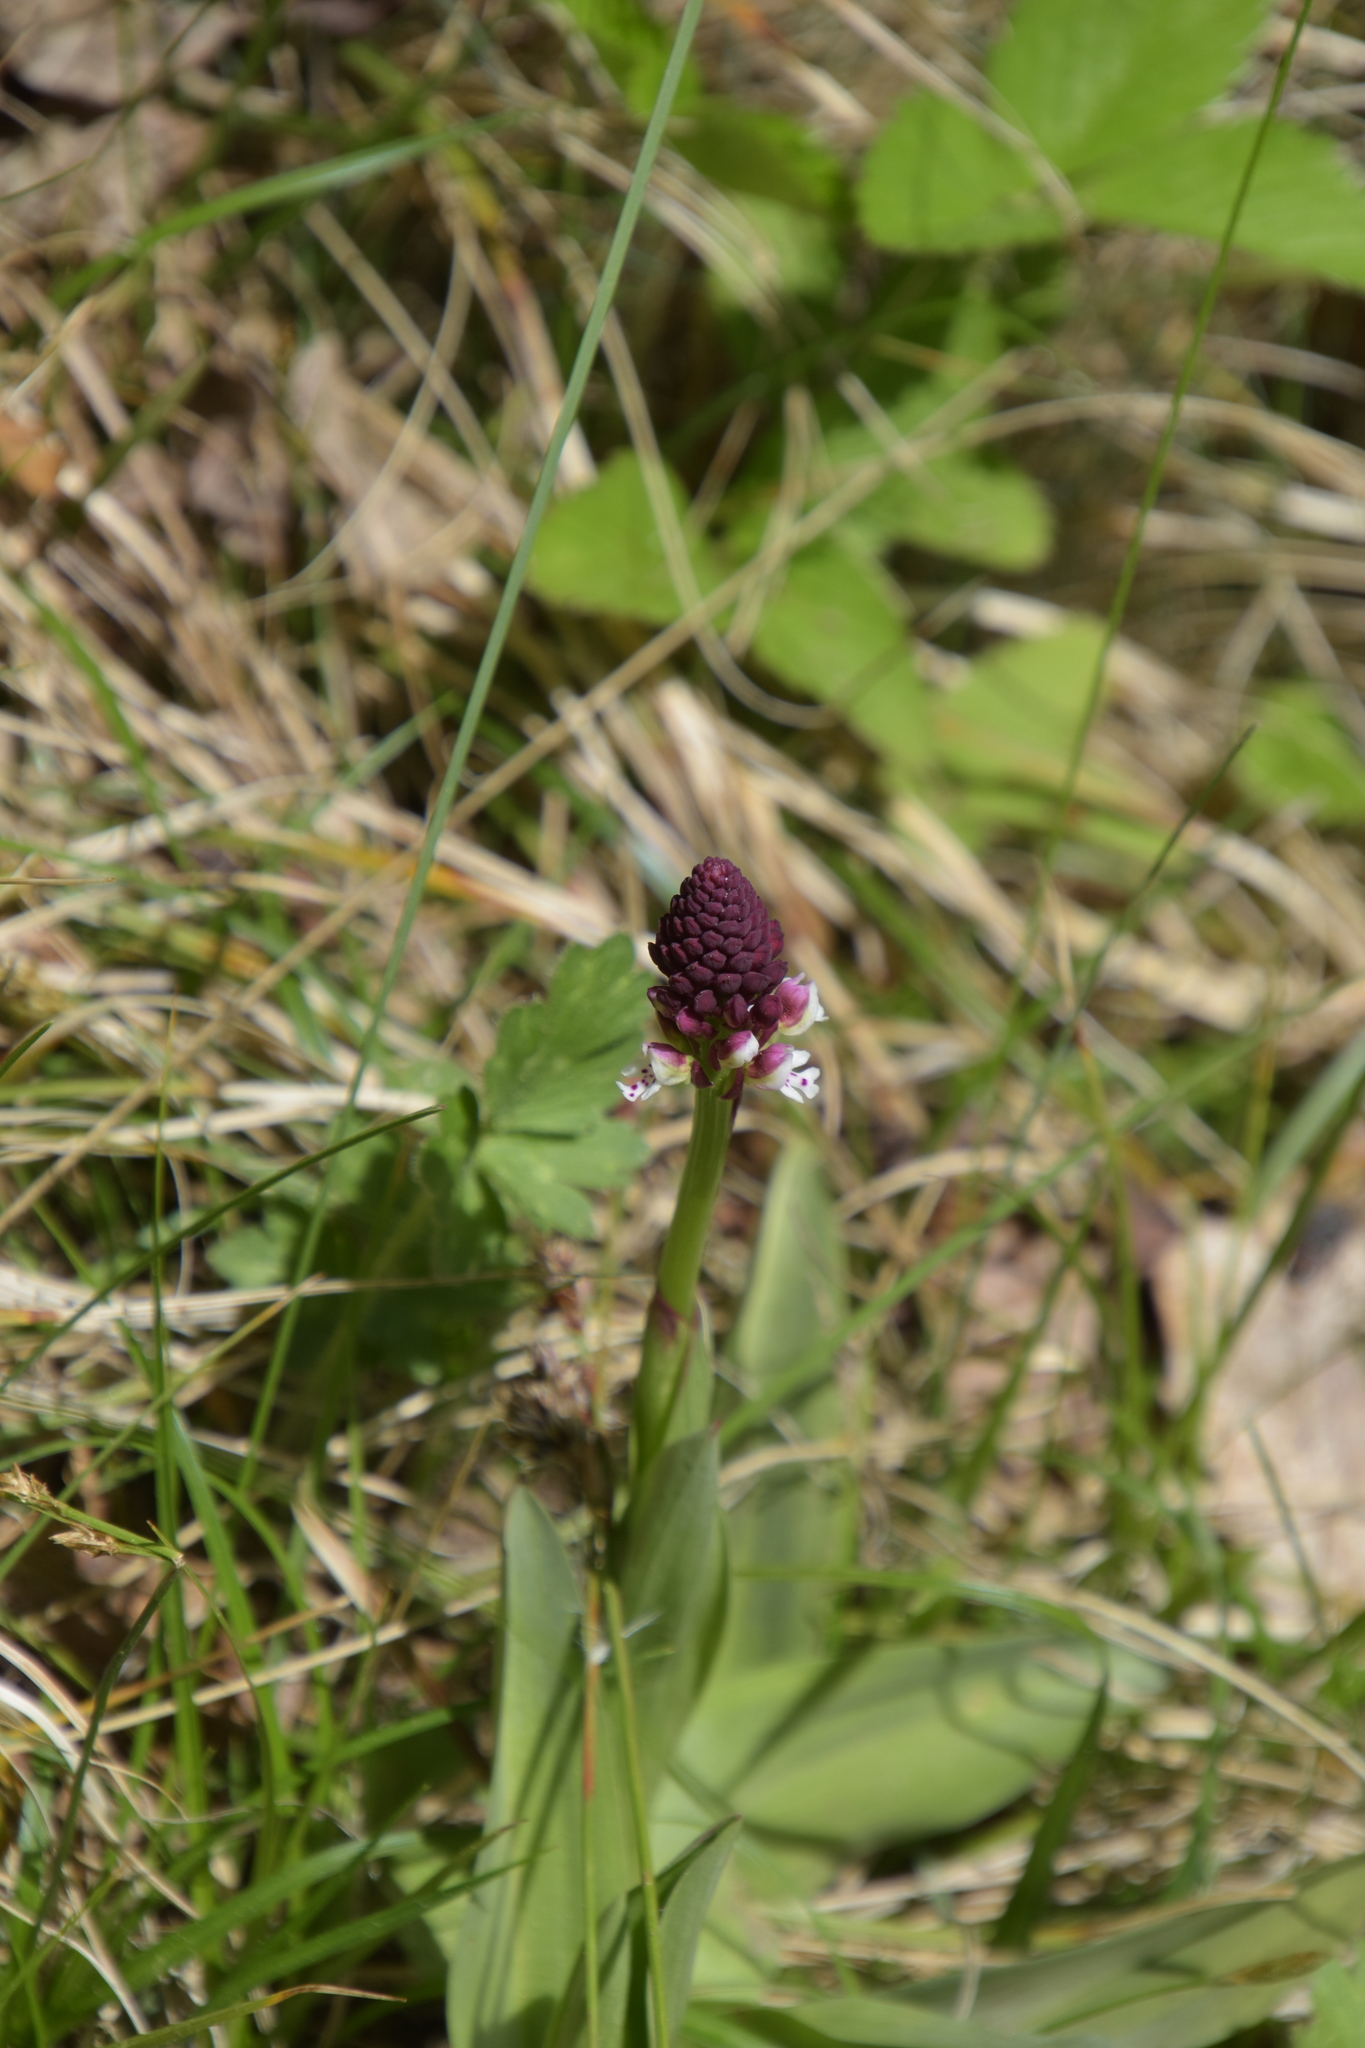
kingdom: Plantae
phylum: Tracheophyta
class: Liliopsida
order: Asparagales
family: Orchidaceae
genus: Neotinea
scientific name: Neotinea ustulata
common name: Burnt orchid
